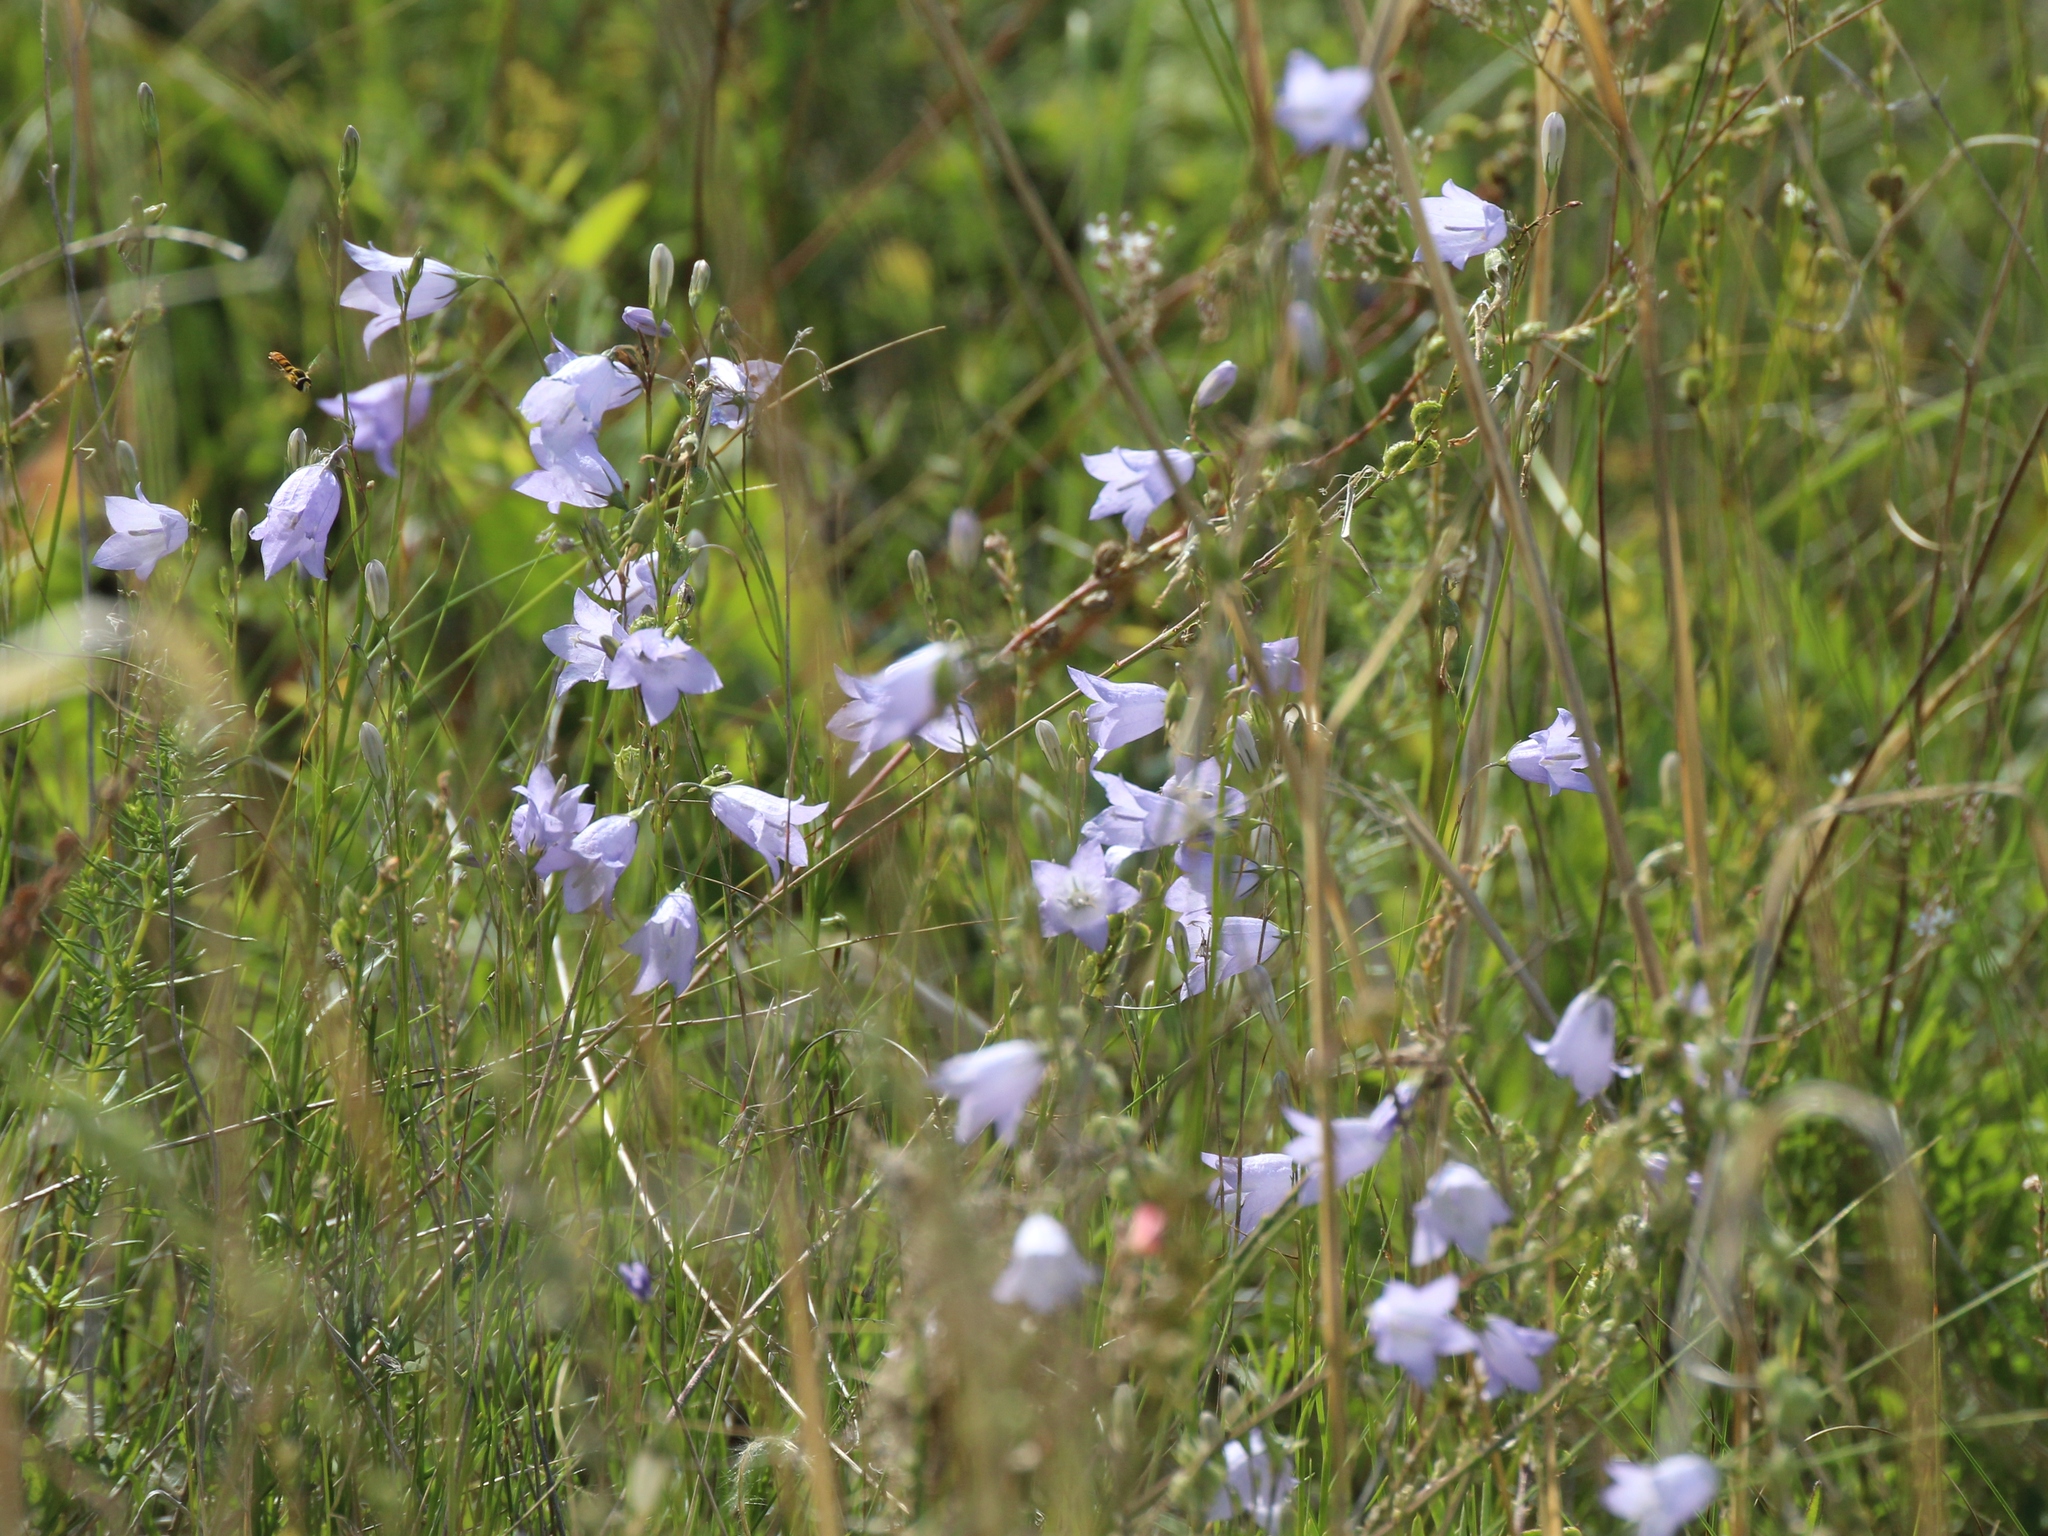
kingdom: Plantae
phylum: Tracheophyta
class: Magnoliopsida
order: Asterales
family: Campanulaceae
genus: Campanula
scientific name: Campanula rotundifolia
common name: Harebell
